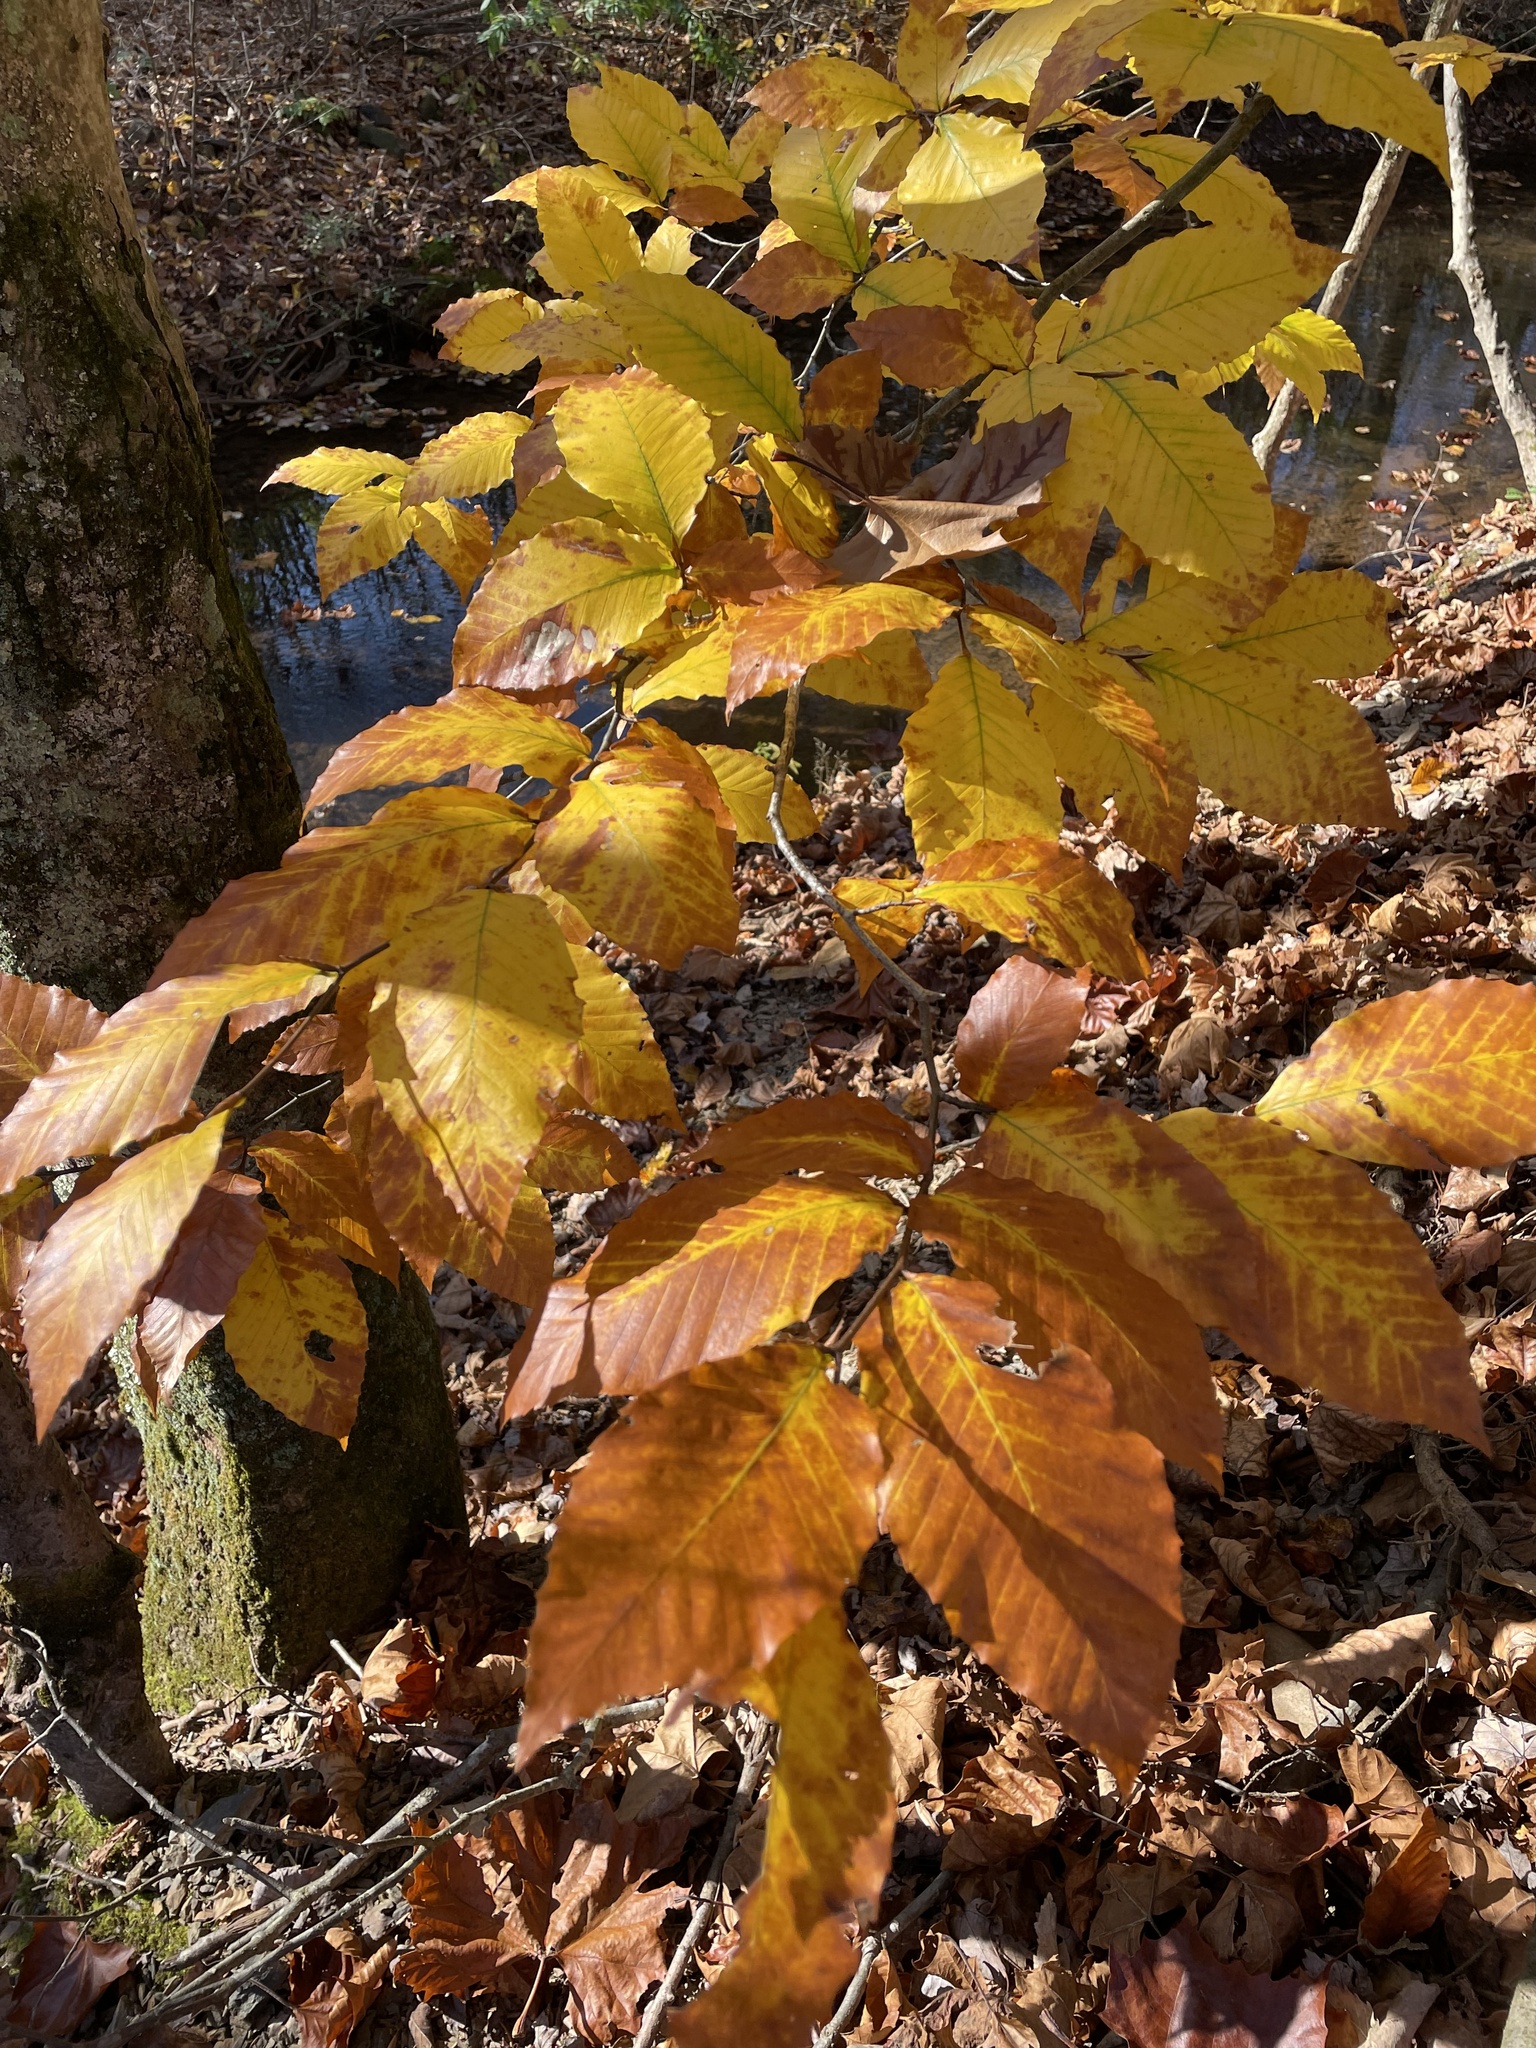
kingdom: Plantae
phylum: Tracheophyta
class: Magnoliopsida
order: Fagales
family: Fagaceae
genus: Fagus
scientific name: Fagus grandifolia
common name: American beech
